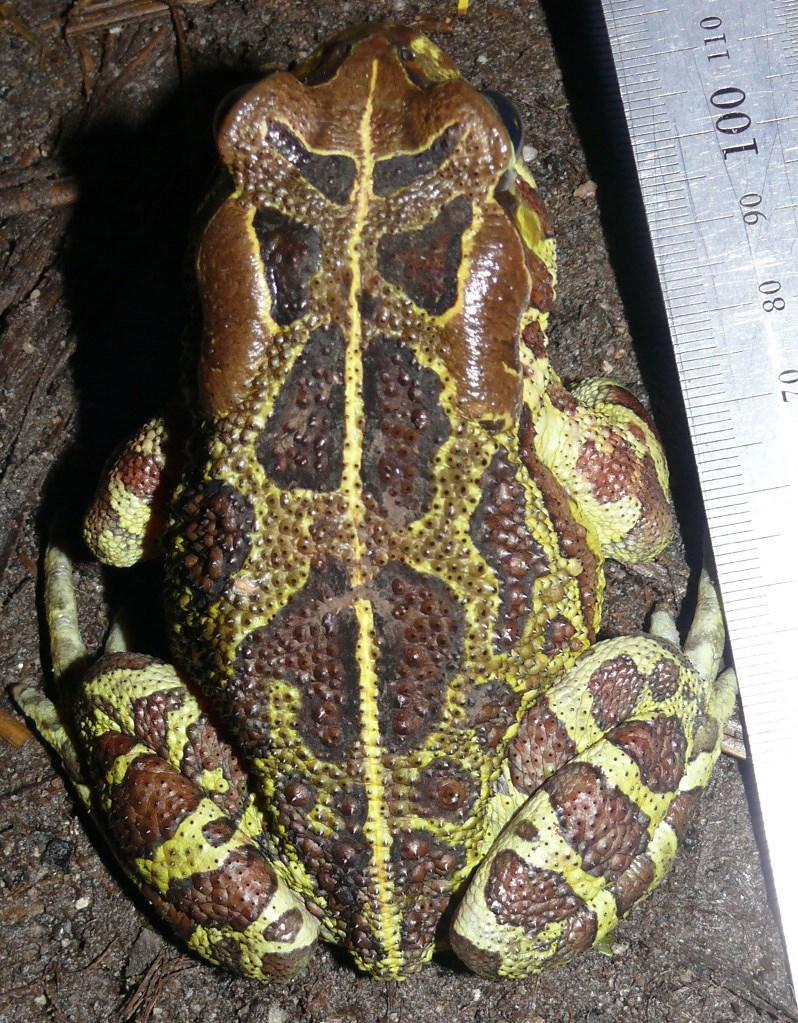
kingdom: Animalia
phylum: Chordata
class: Amphibia
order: Anura
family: Bufonidae
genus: Sclerophrys
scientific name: Sclerophrys pantherina
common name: Panther toad
